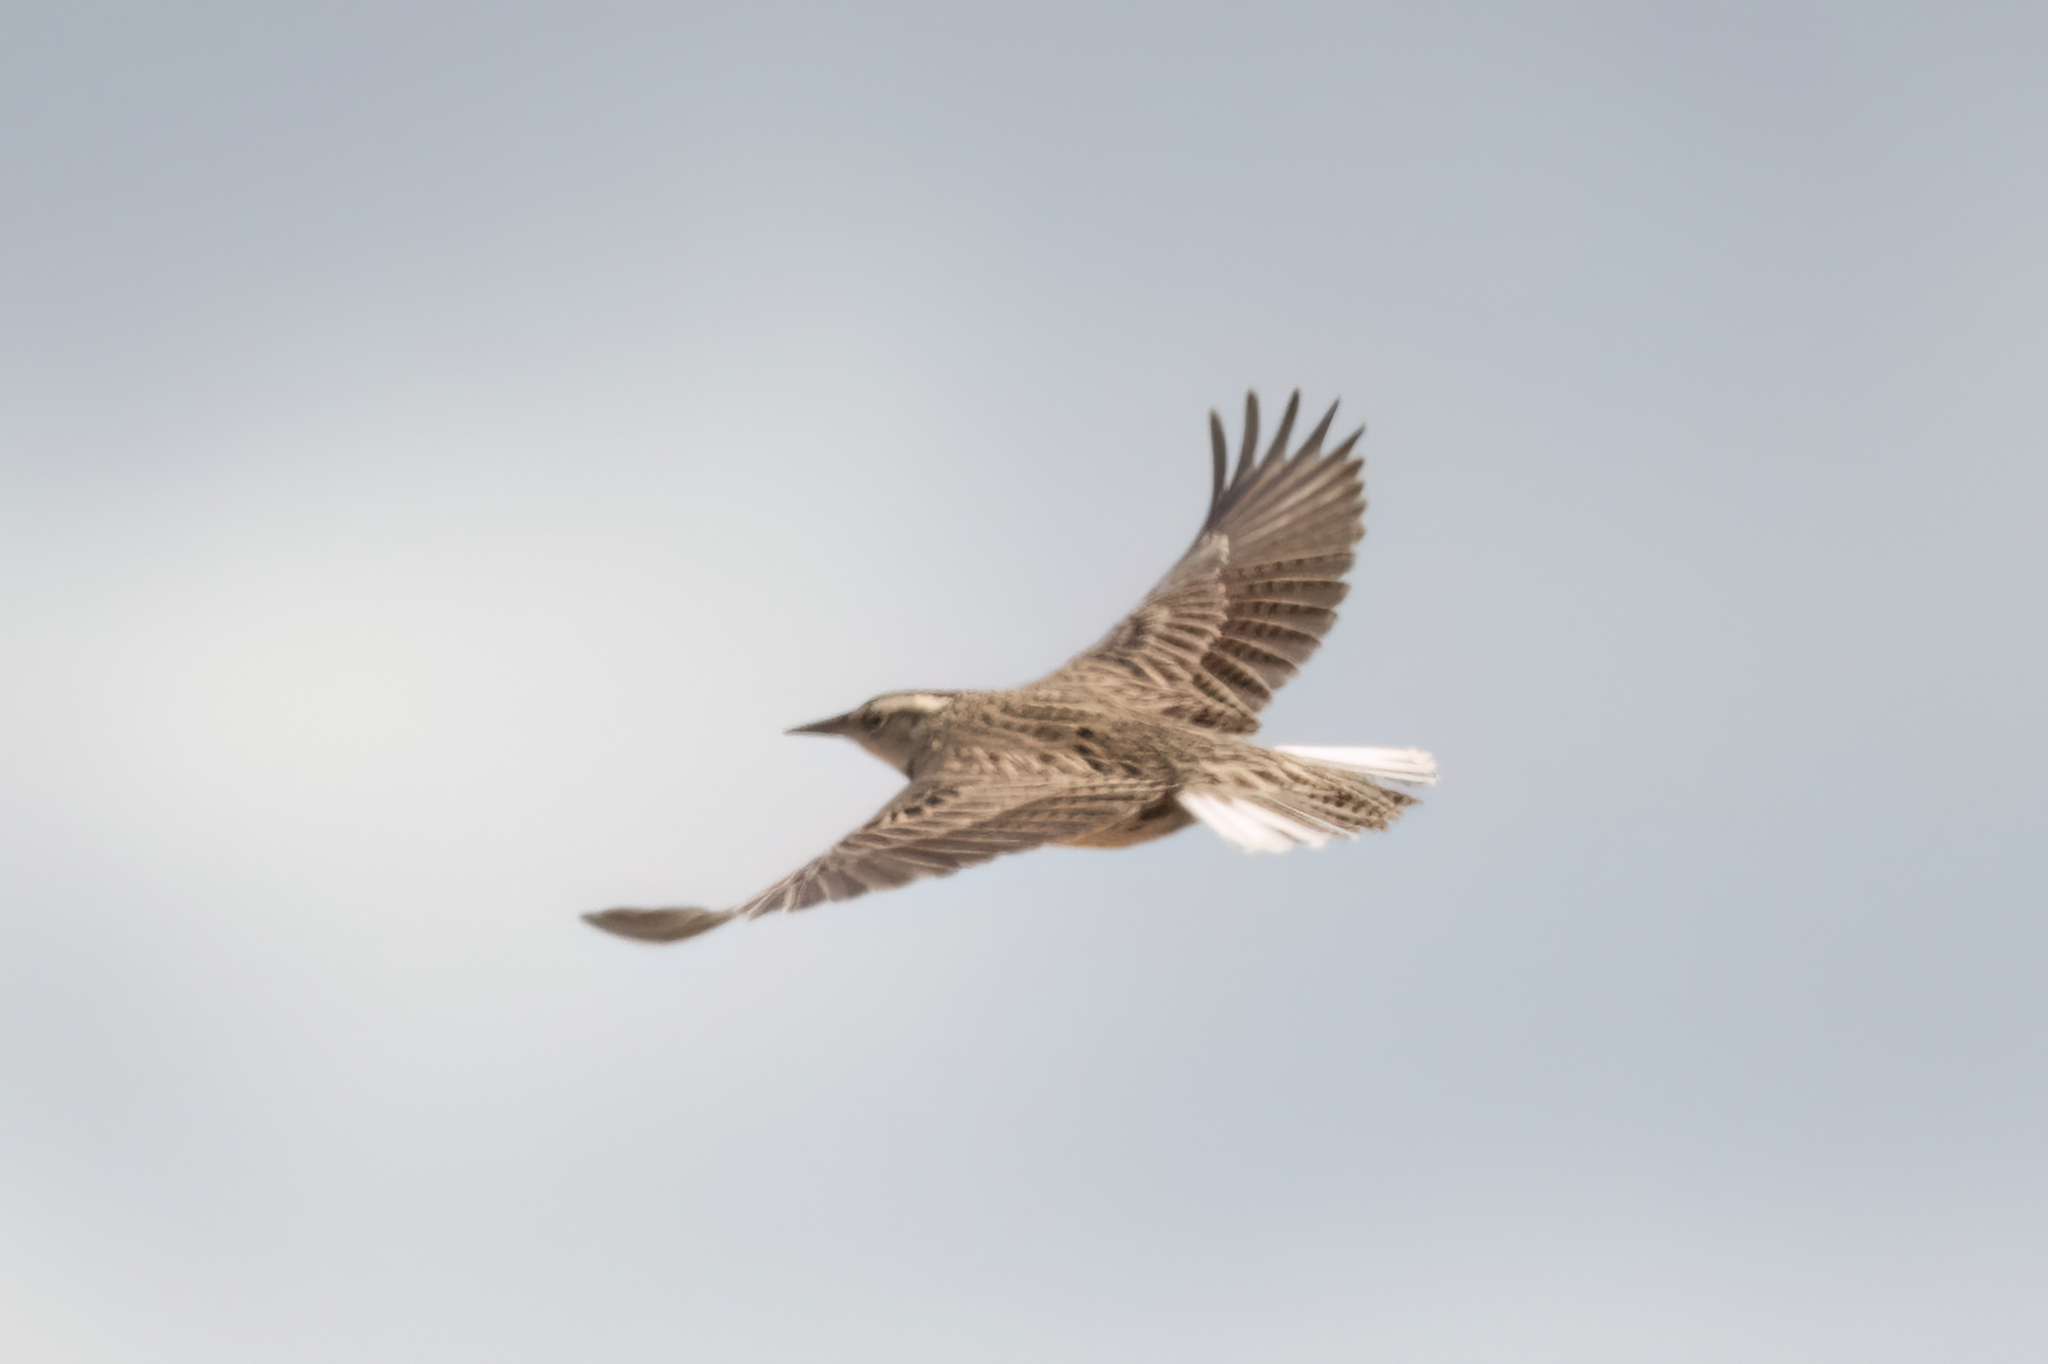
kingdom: Animalia
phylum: Chordata
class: Aves
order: Passeriformes
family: Icteridae
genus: Sturnella
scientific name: Sturnella lilianae
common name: Lilian's meadowlark
